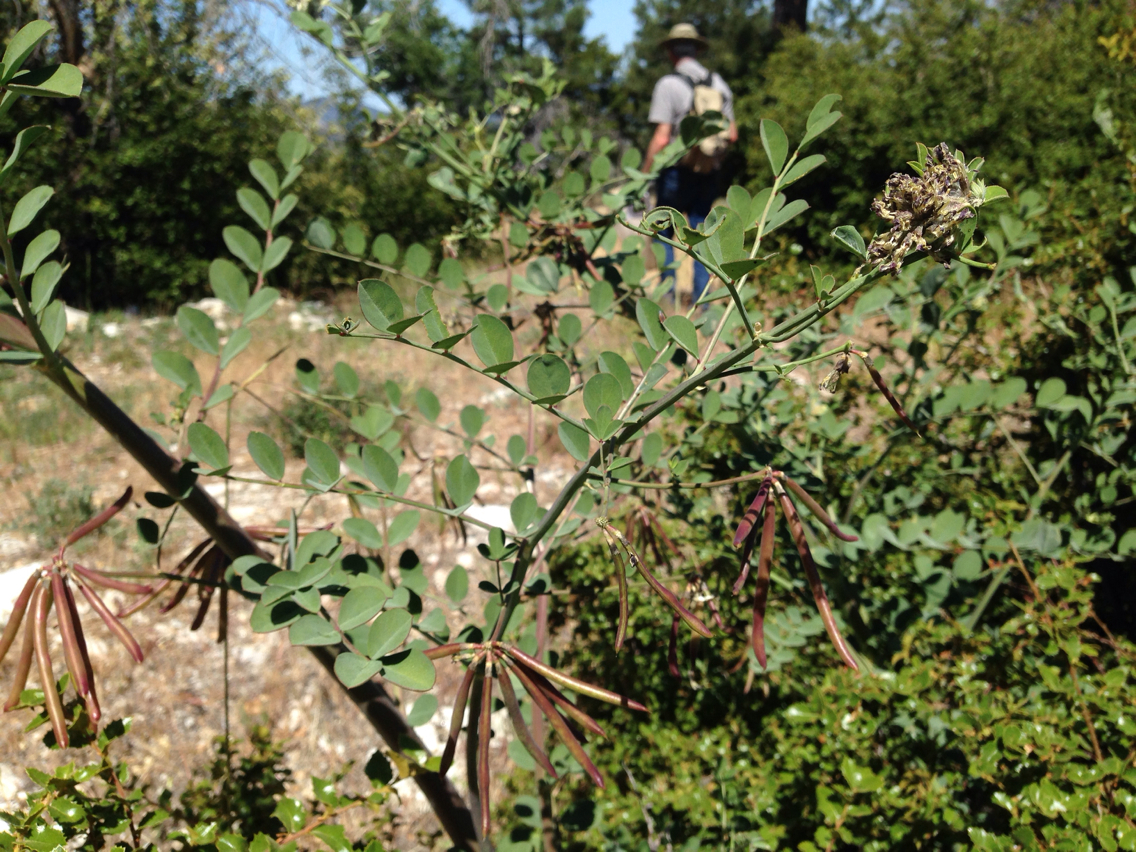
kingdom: Plantae
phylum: Tracheophyta
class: Magnoliopsida
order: Fabales
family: Fabaceae
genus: Hosackia
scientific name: Hosackia crassifolia
